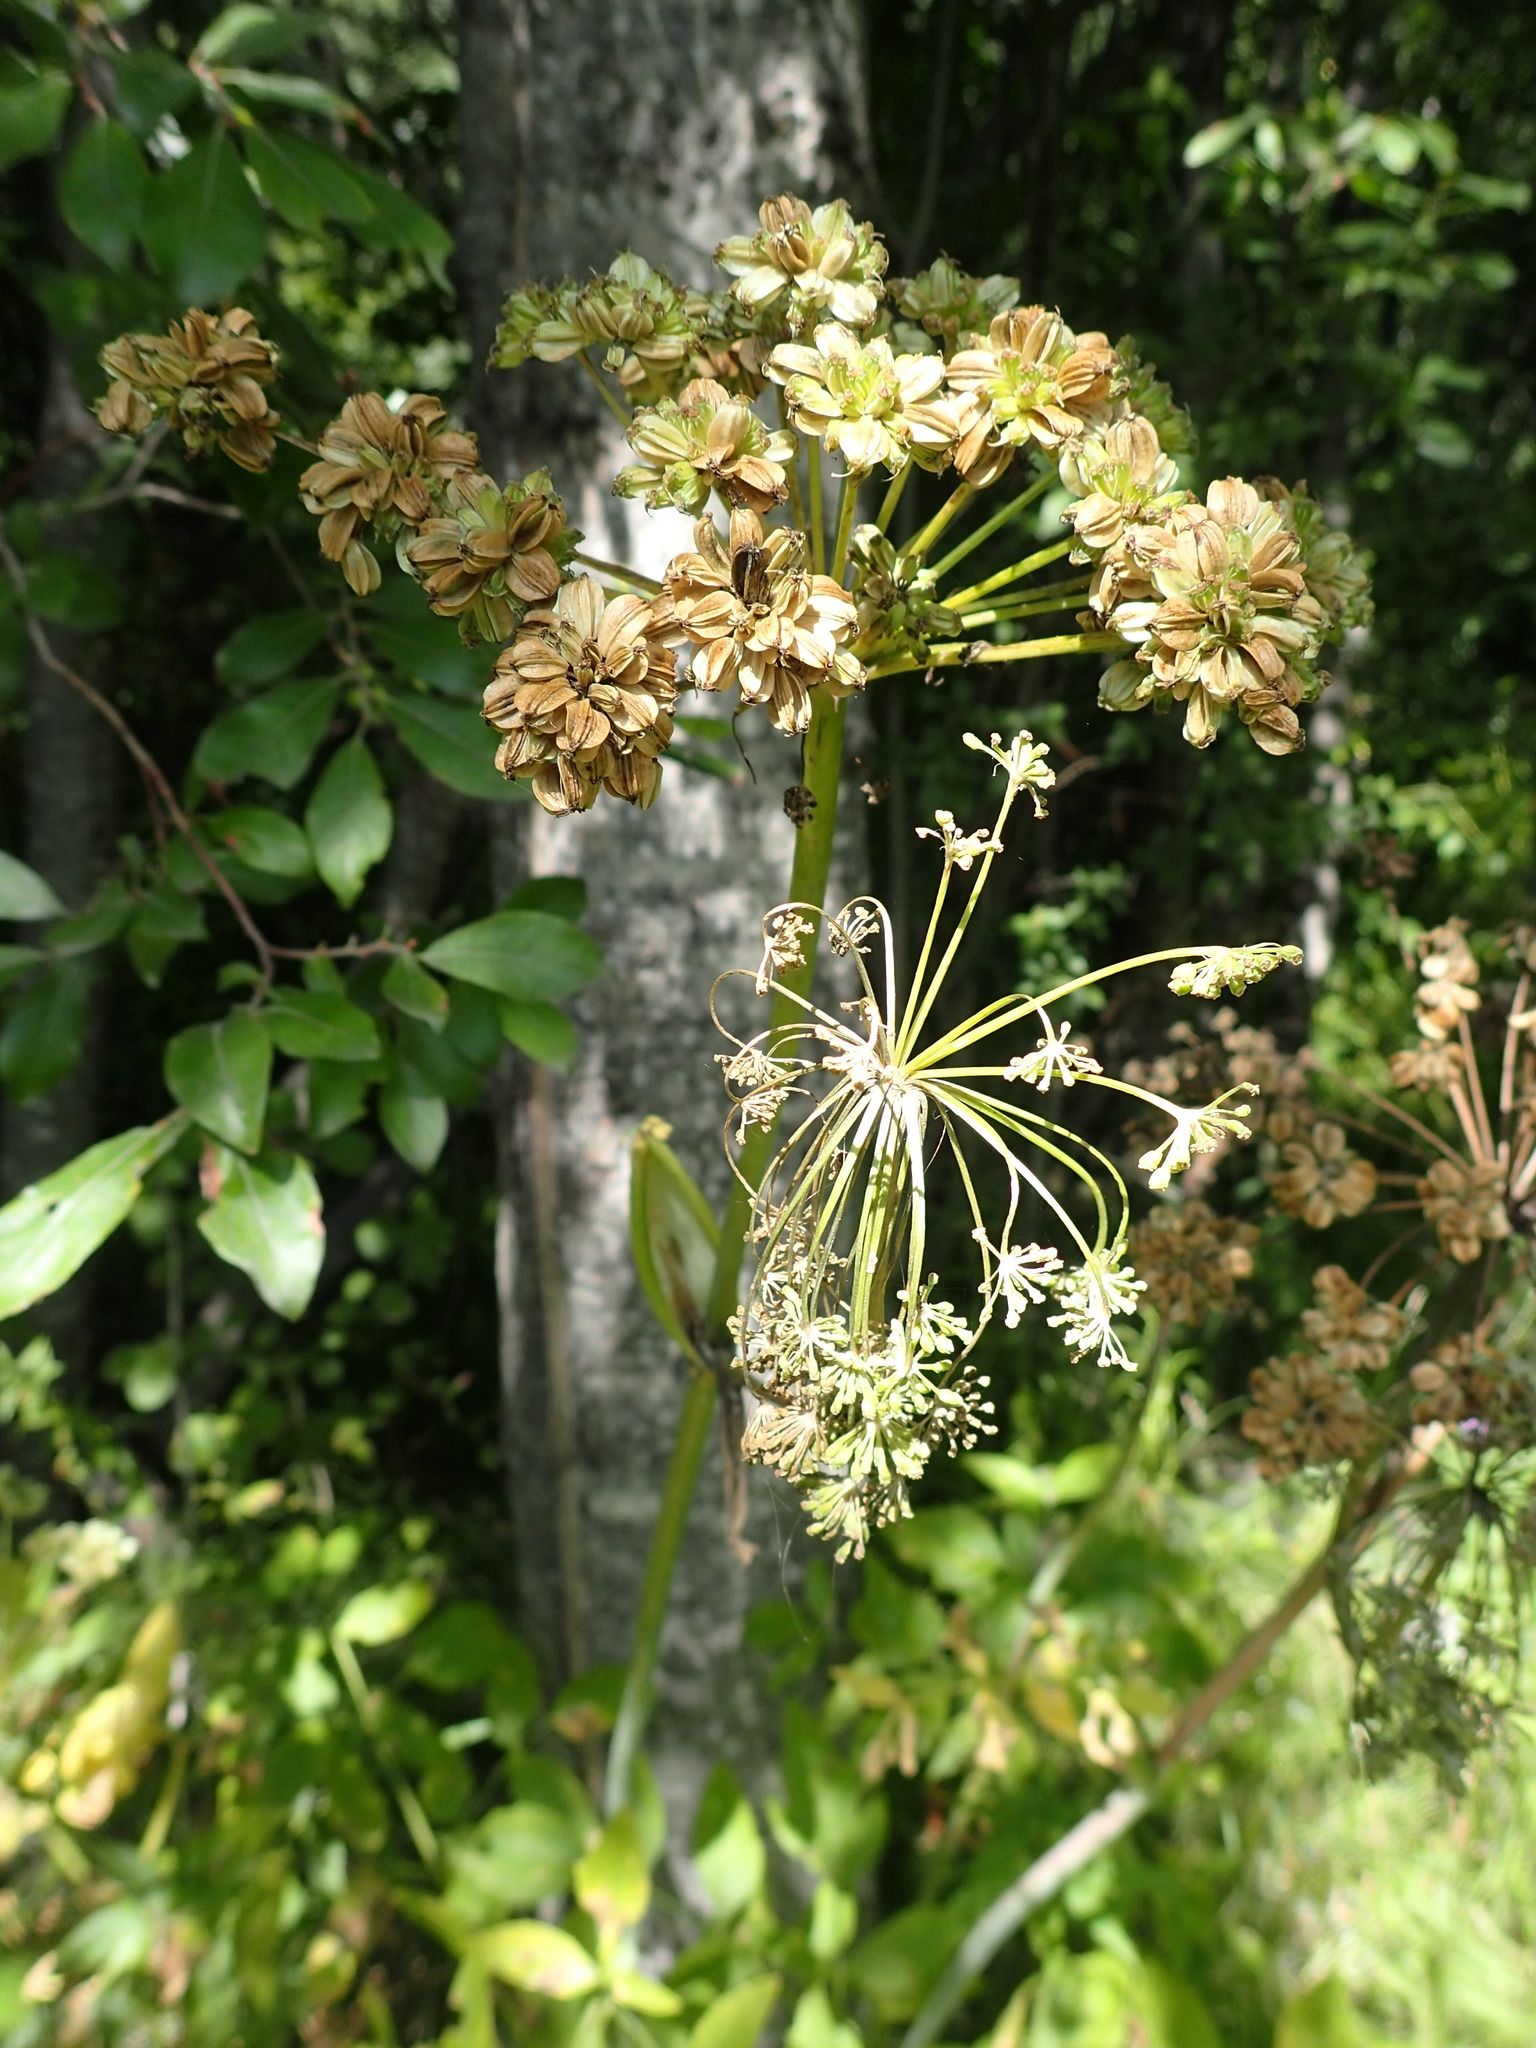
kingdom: Plantae
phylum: Tracheophyta
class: Magnoliopsida
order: Apiales
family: Apiaceae
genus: Angelica
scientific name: Angelica arguta
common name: Lyall's angelica
